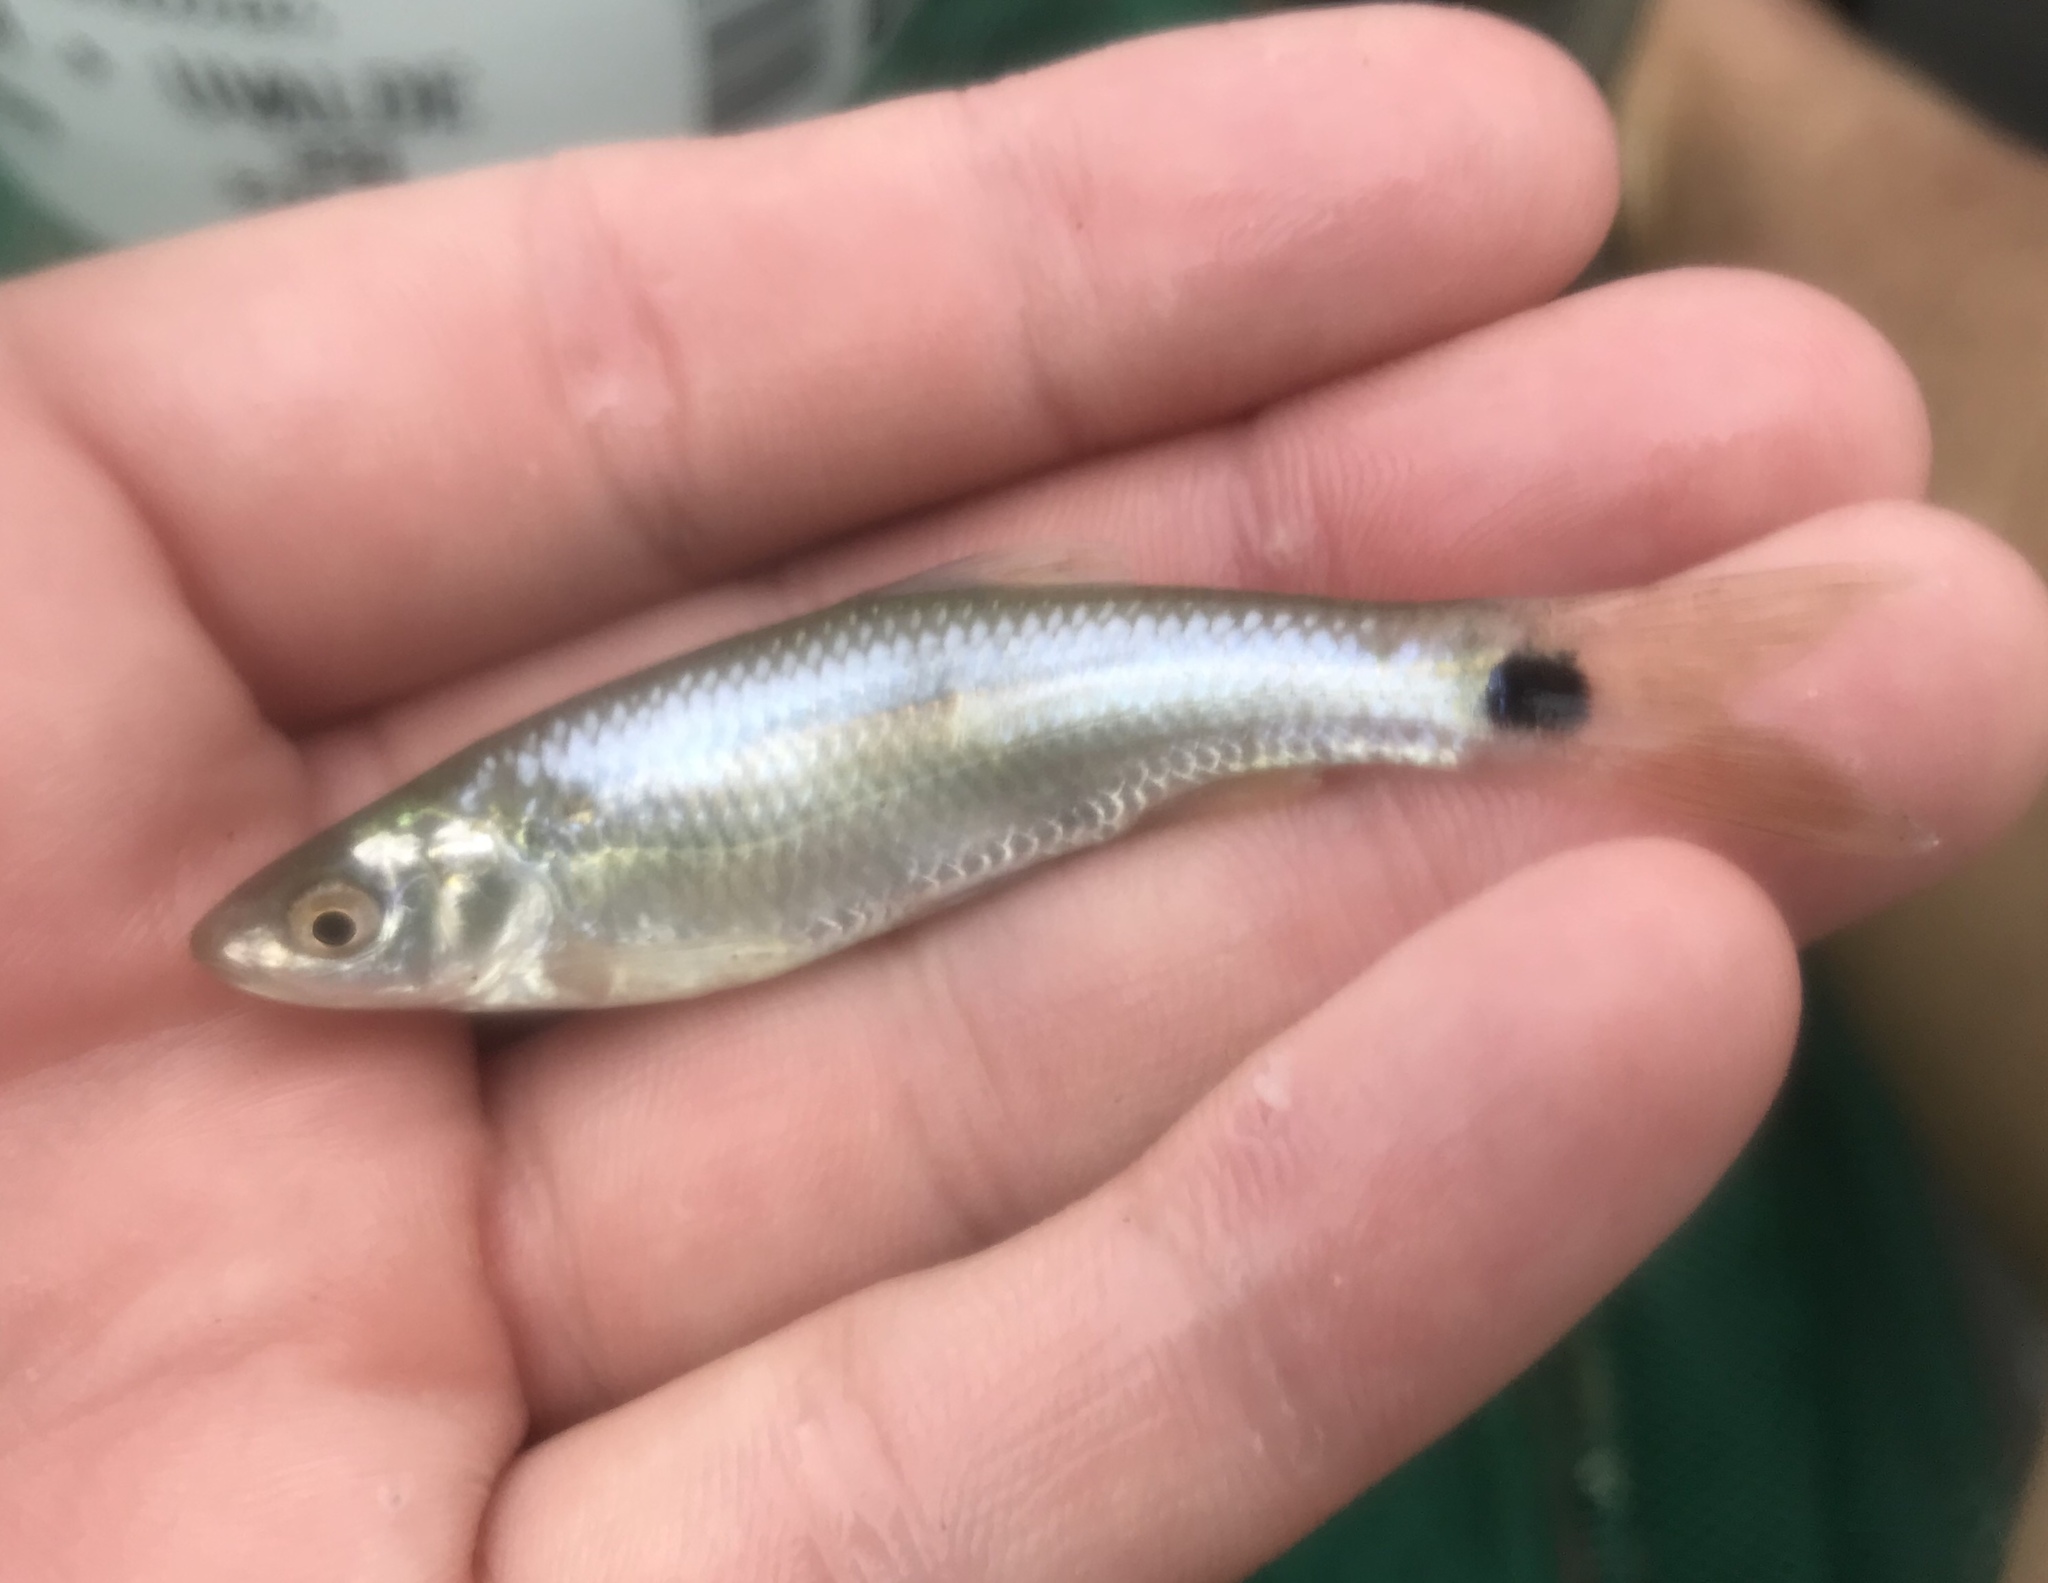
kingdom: Animalia
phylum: Chordata
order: Cypriniformes
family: Cyprinidae
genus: Cyprinella
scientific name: Cyprinella venusta
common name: Blacktail shiner
